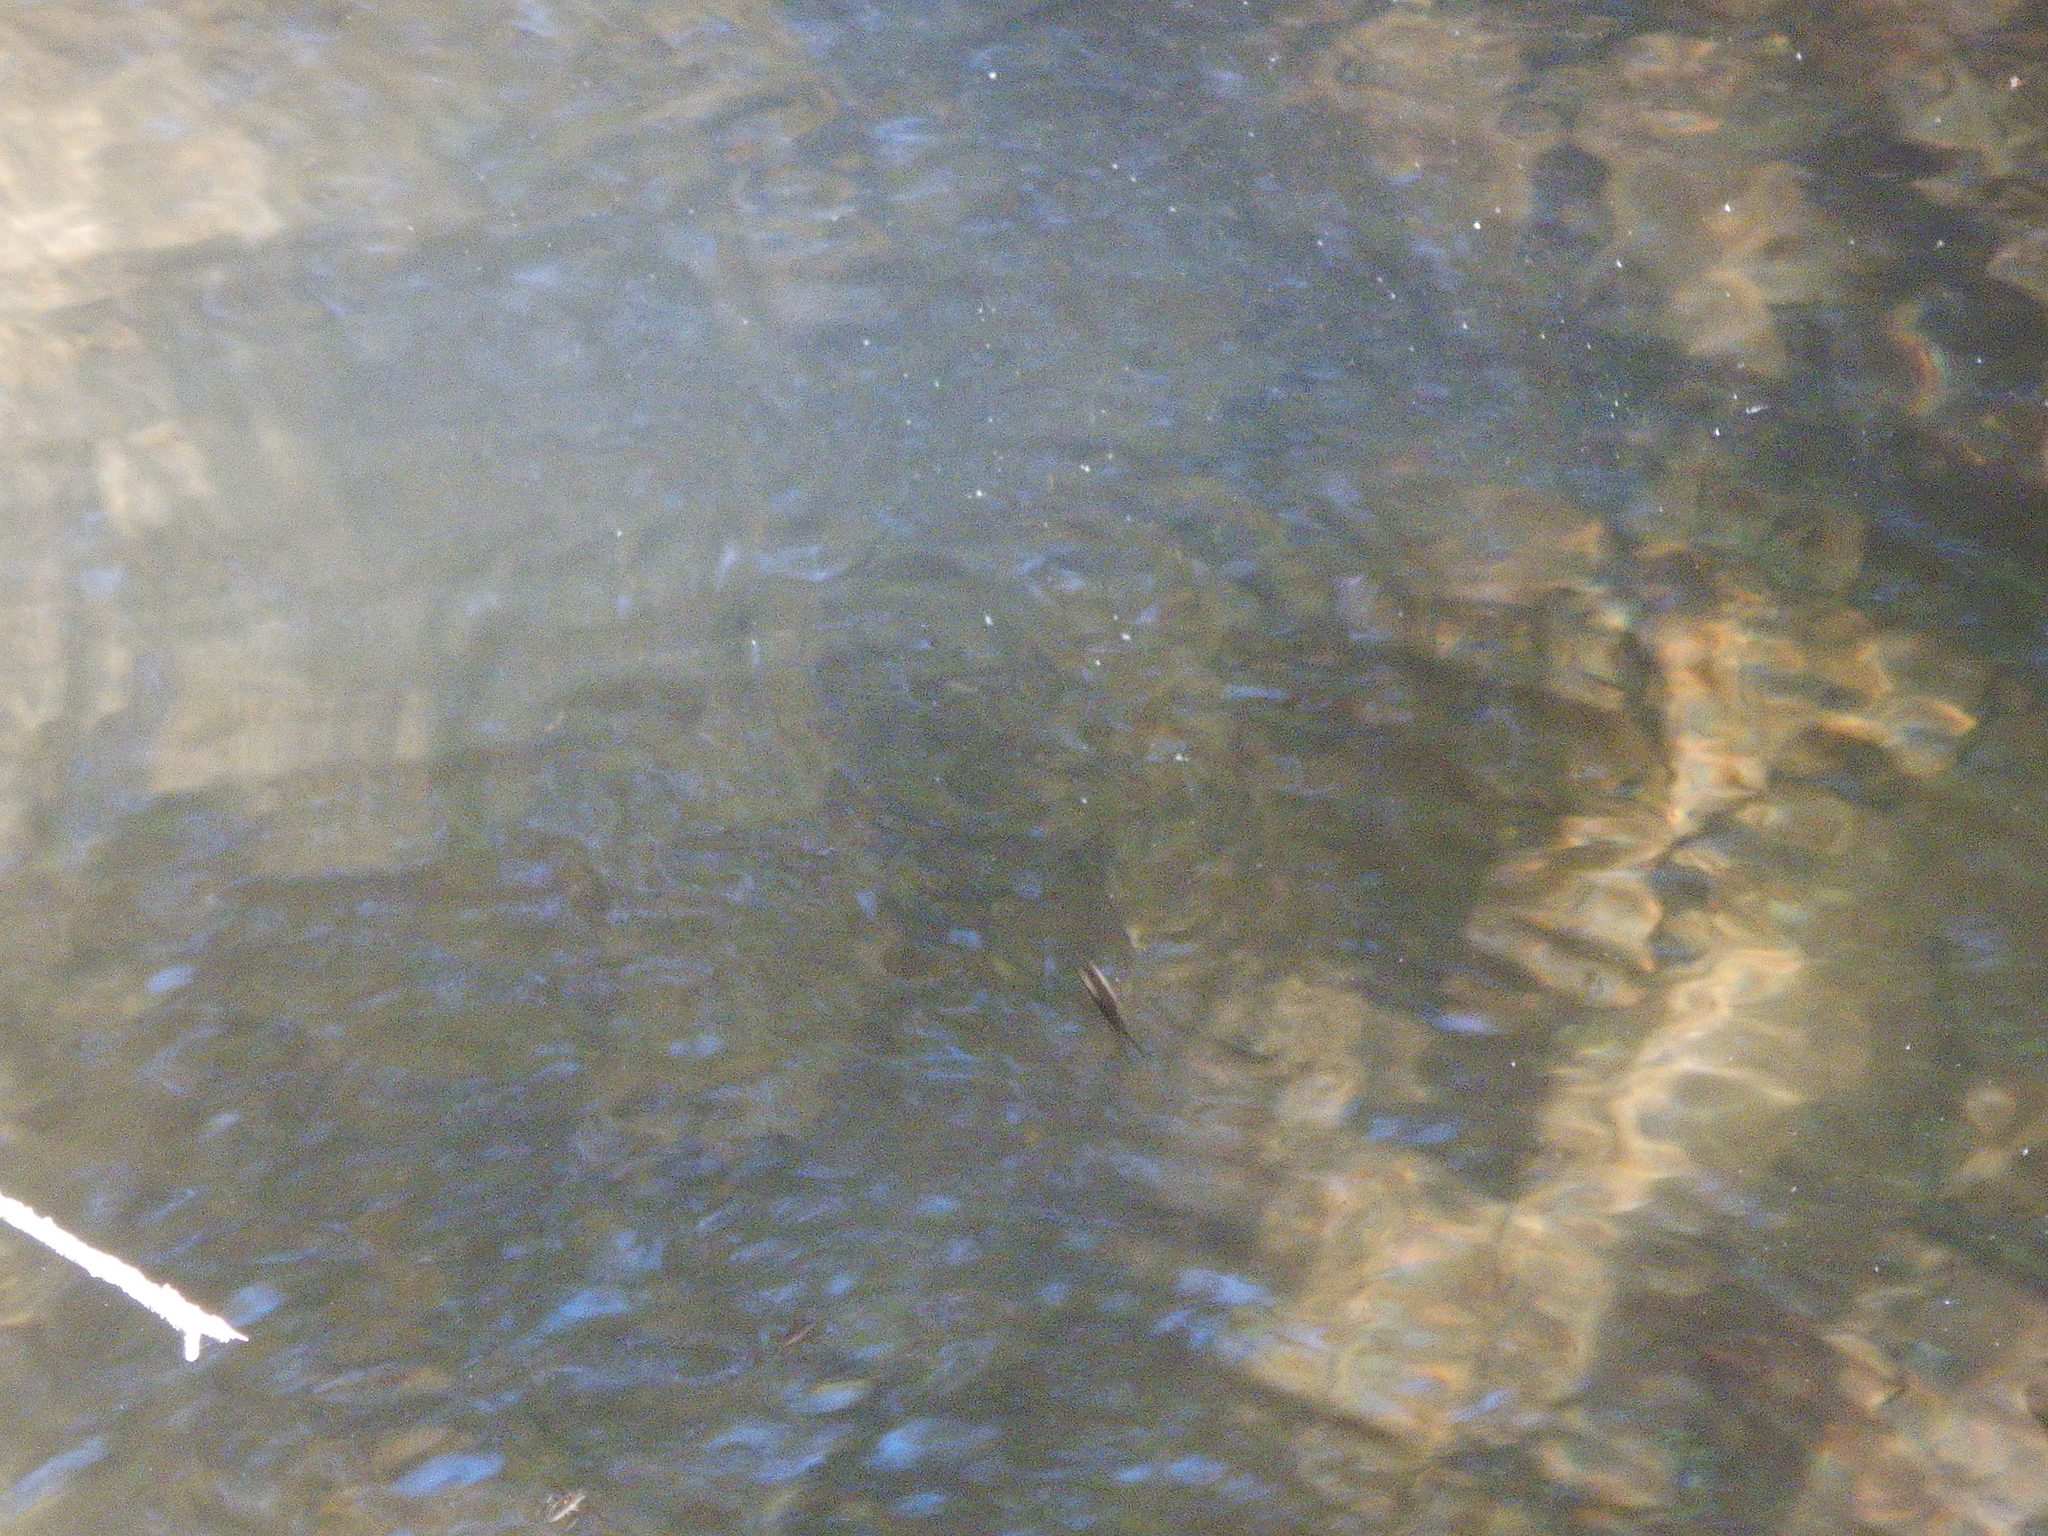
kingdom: Animalia
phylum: Arthropoda
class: Insecta
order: Hemiptera
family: Gerridae
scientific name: Gerridae
